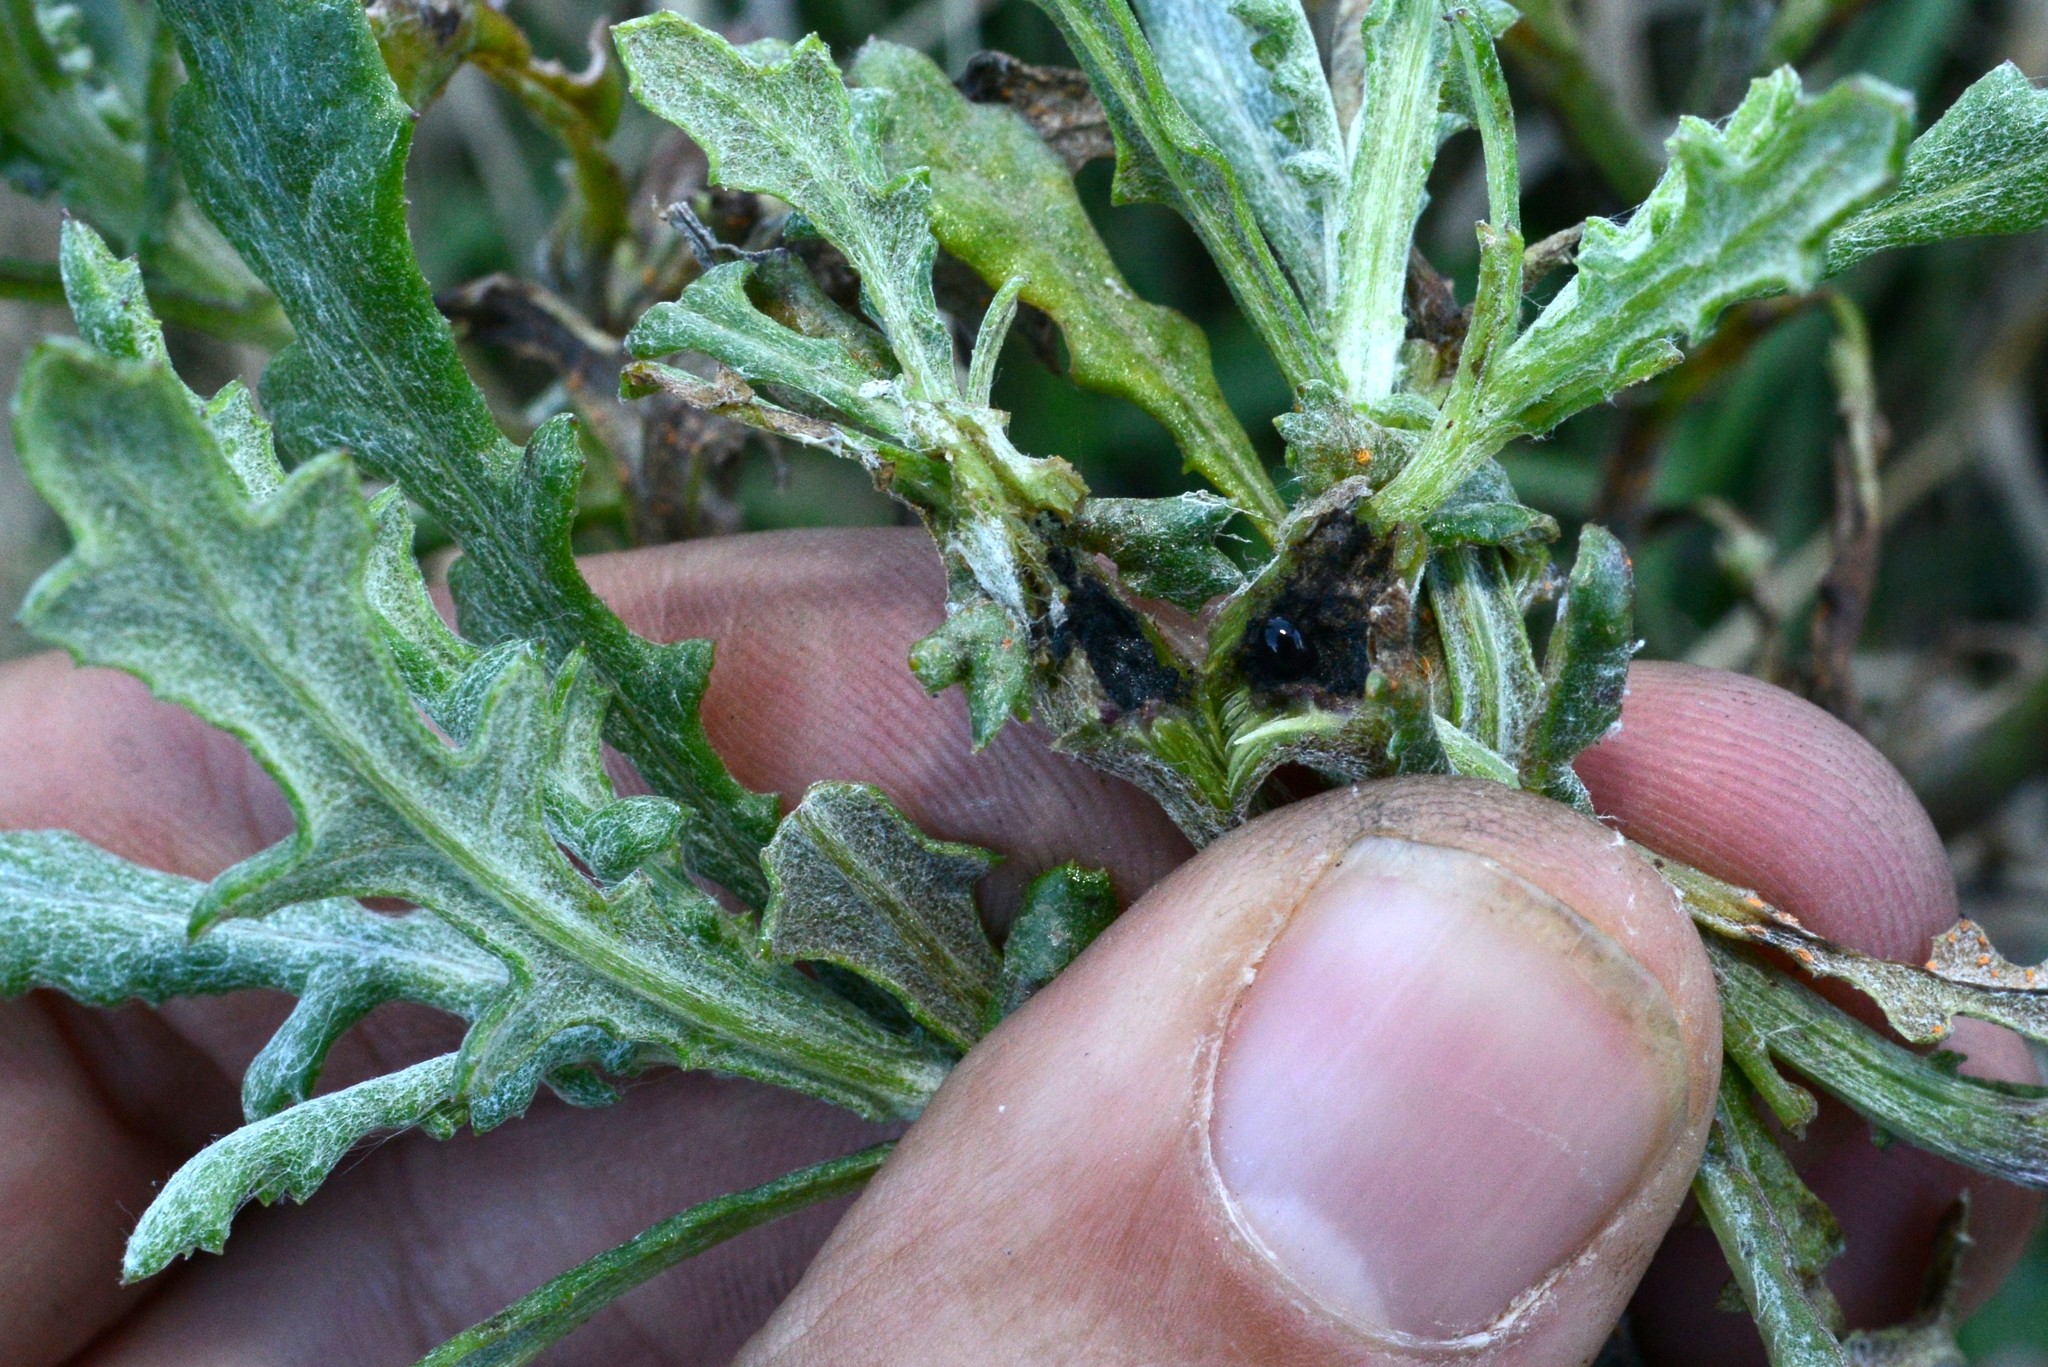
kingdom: Animalia
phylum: Arthropoda
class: Insecta
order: Diptera
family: Tephritidae
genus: Sphenella
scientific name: Sphenella
